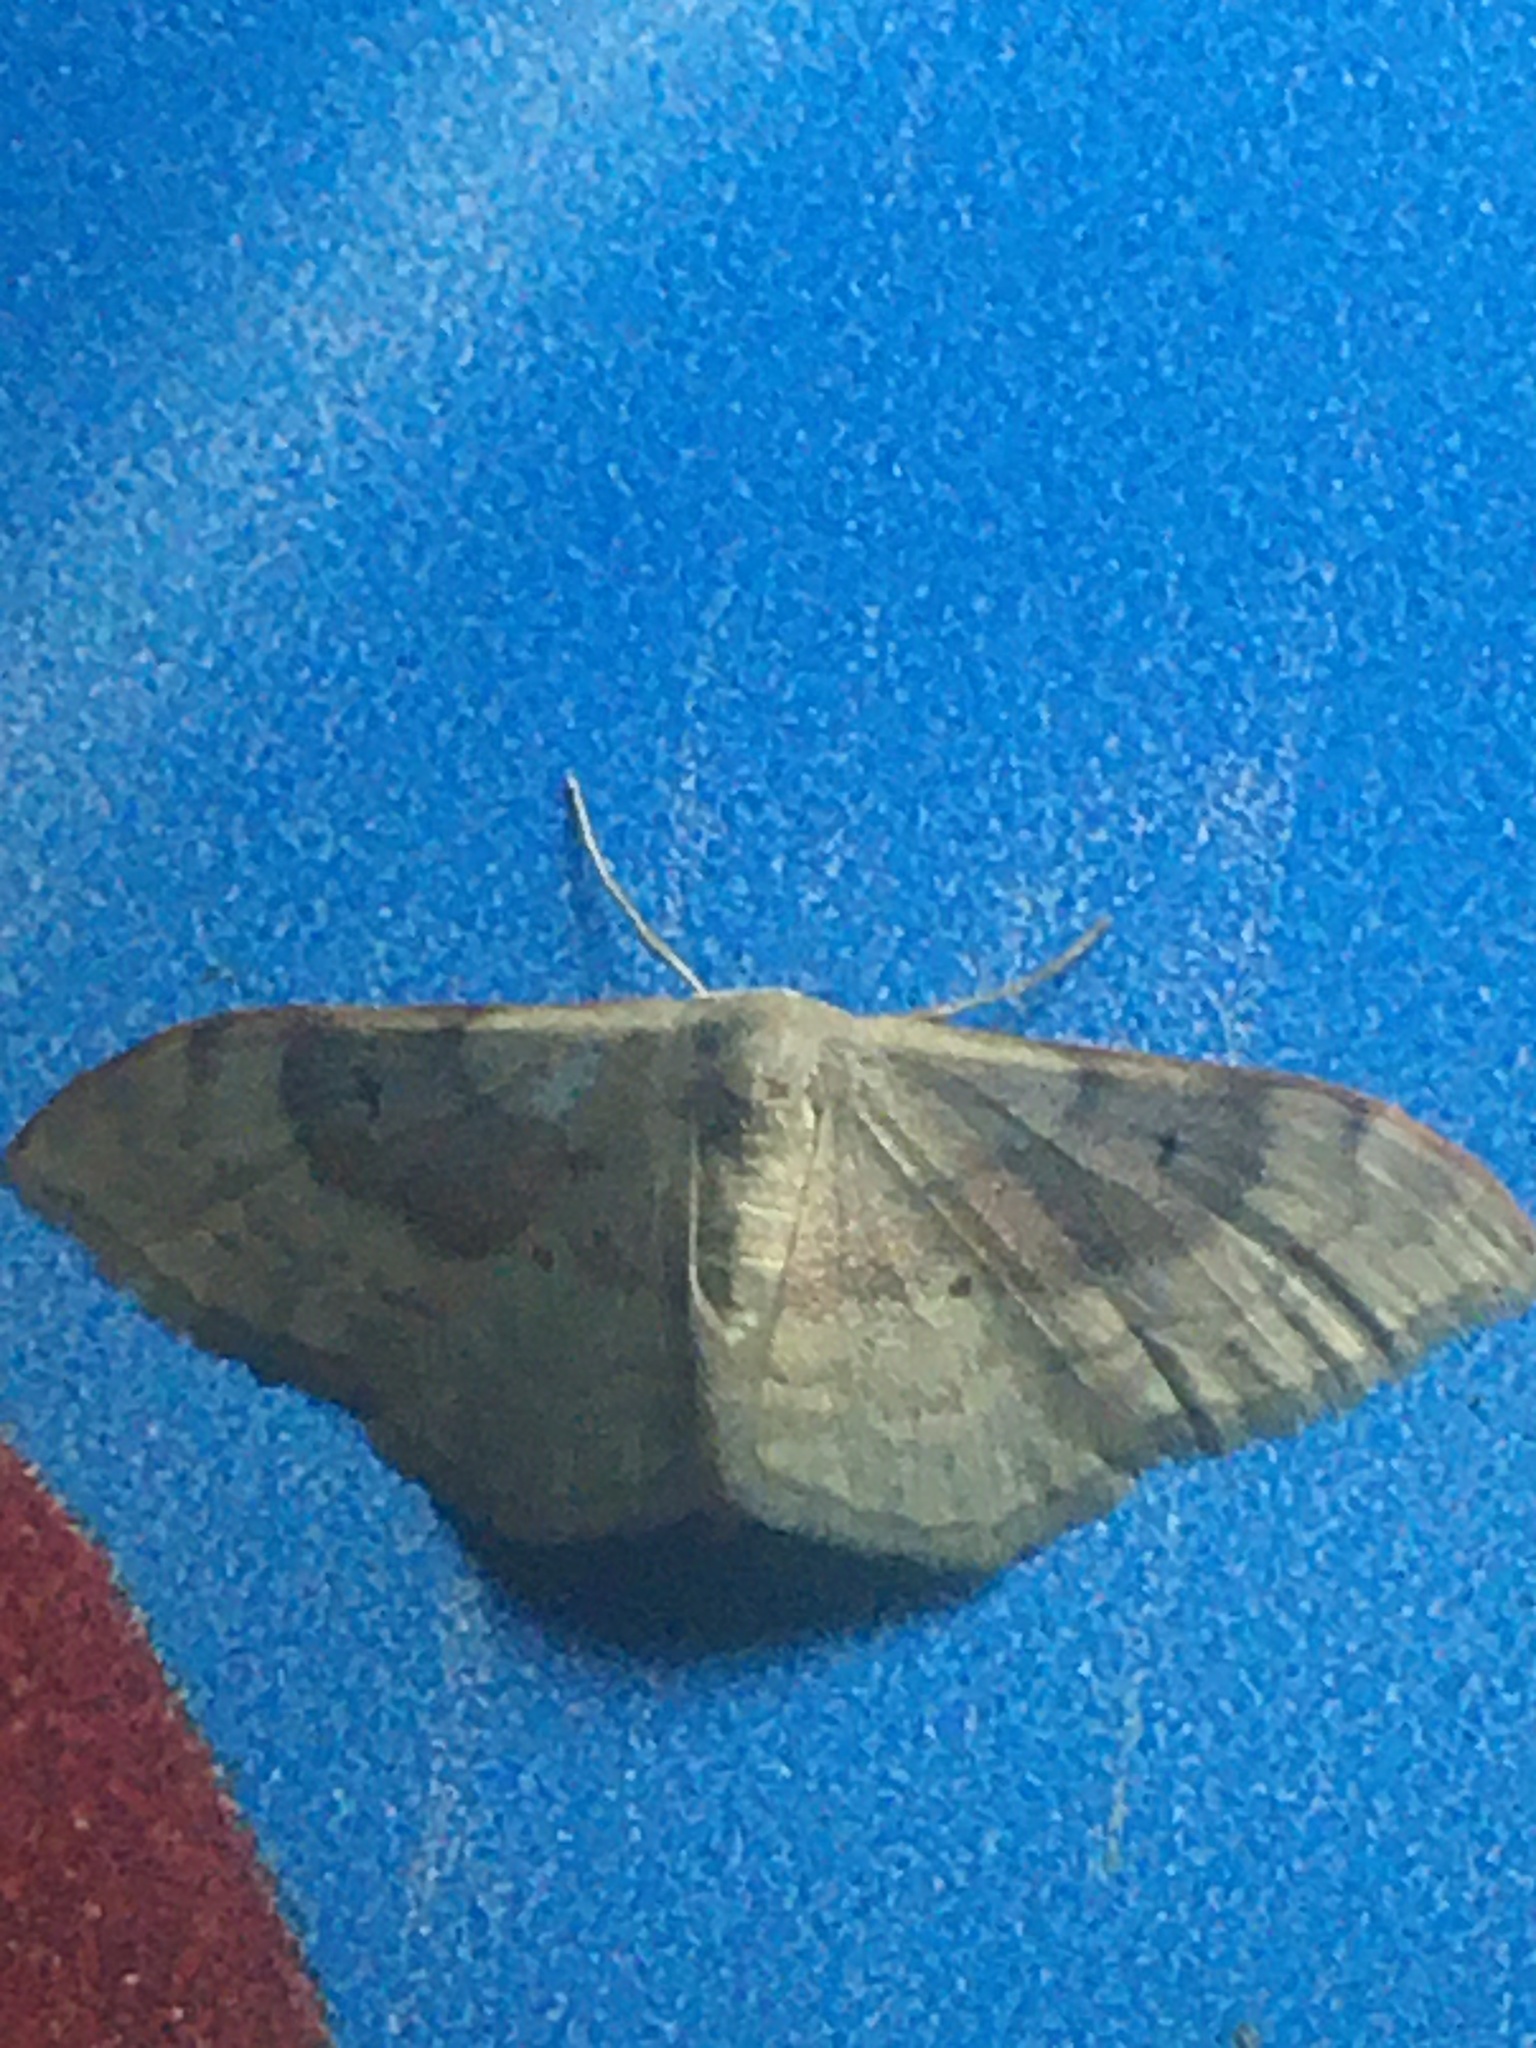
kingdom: Animalia
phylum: Arthropoda
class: Insecta
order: Lepidoptera
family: Geometridae
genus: Idaea
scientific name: Idaea degeneraria
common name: Portland ribbon wave
